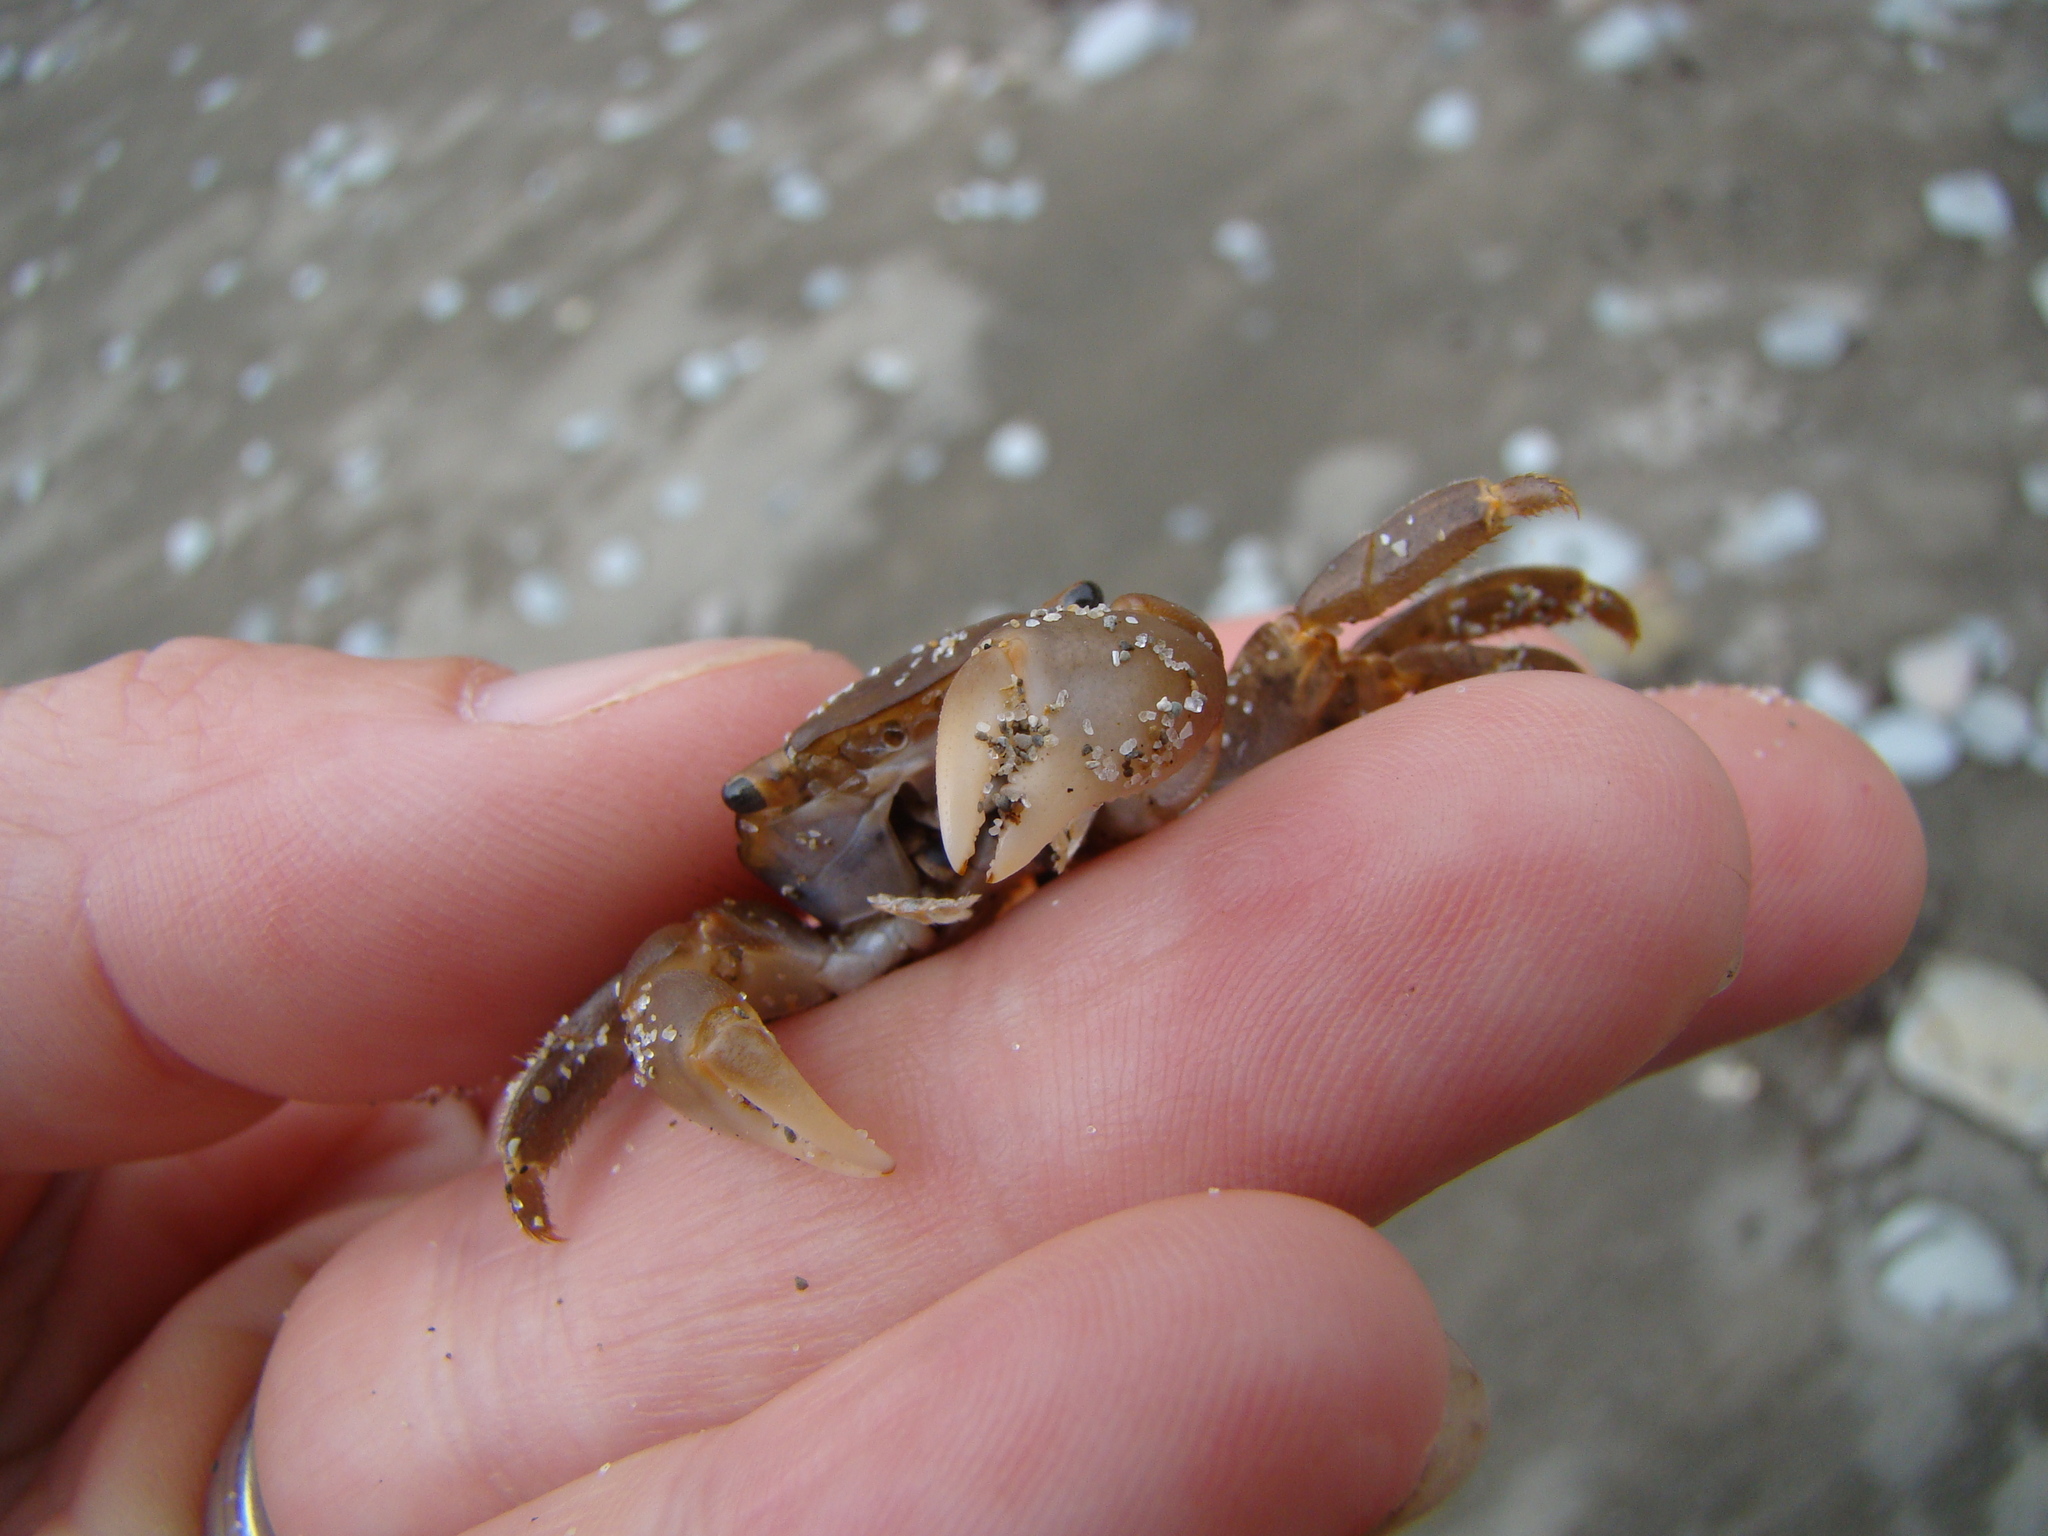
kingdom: Animalia
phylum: Arthropoda
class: Malacostraca
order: Decapoda
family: Grapsidae
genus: Planes
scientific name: Planes minutus
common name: Gulf weed crab
